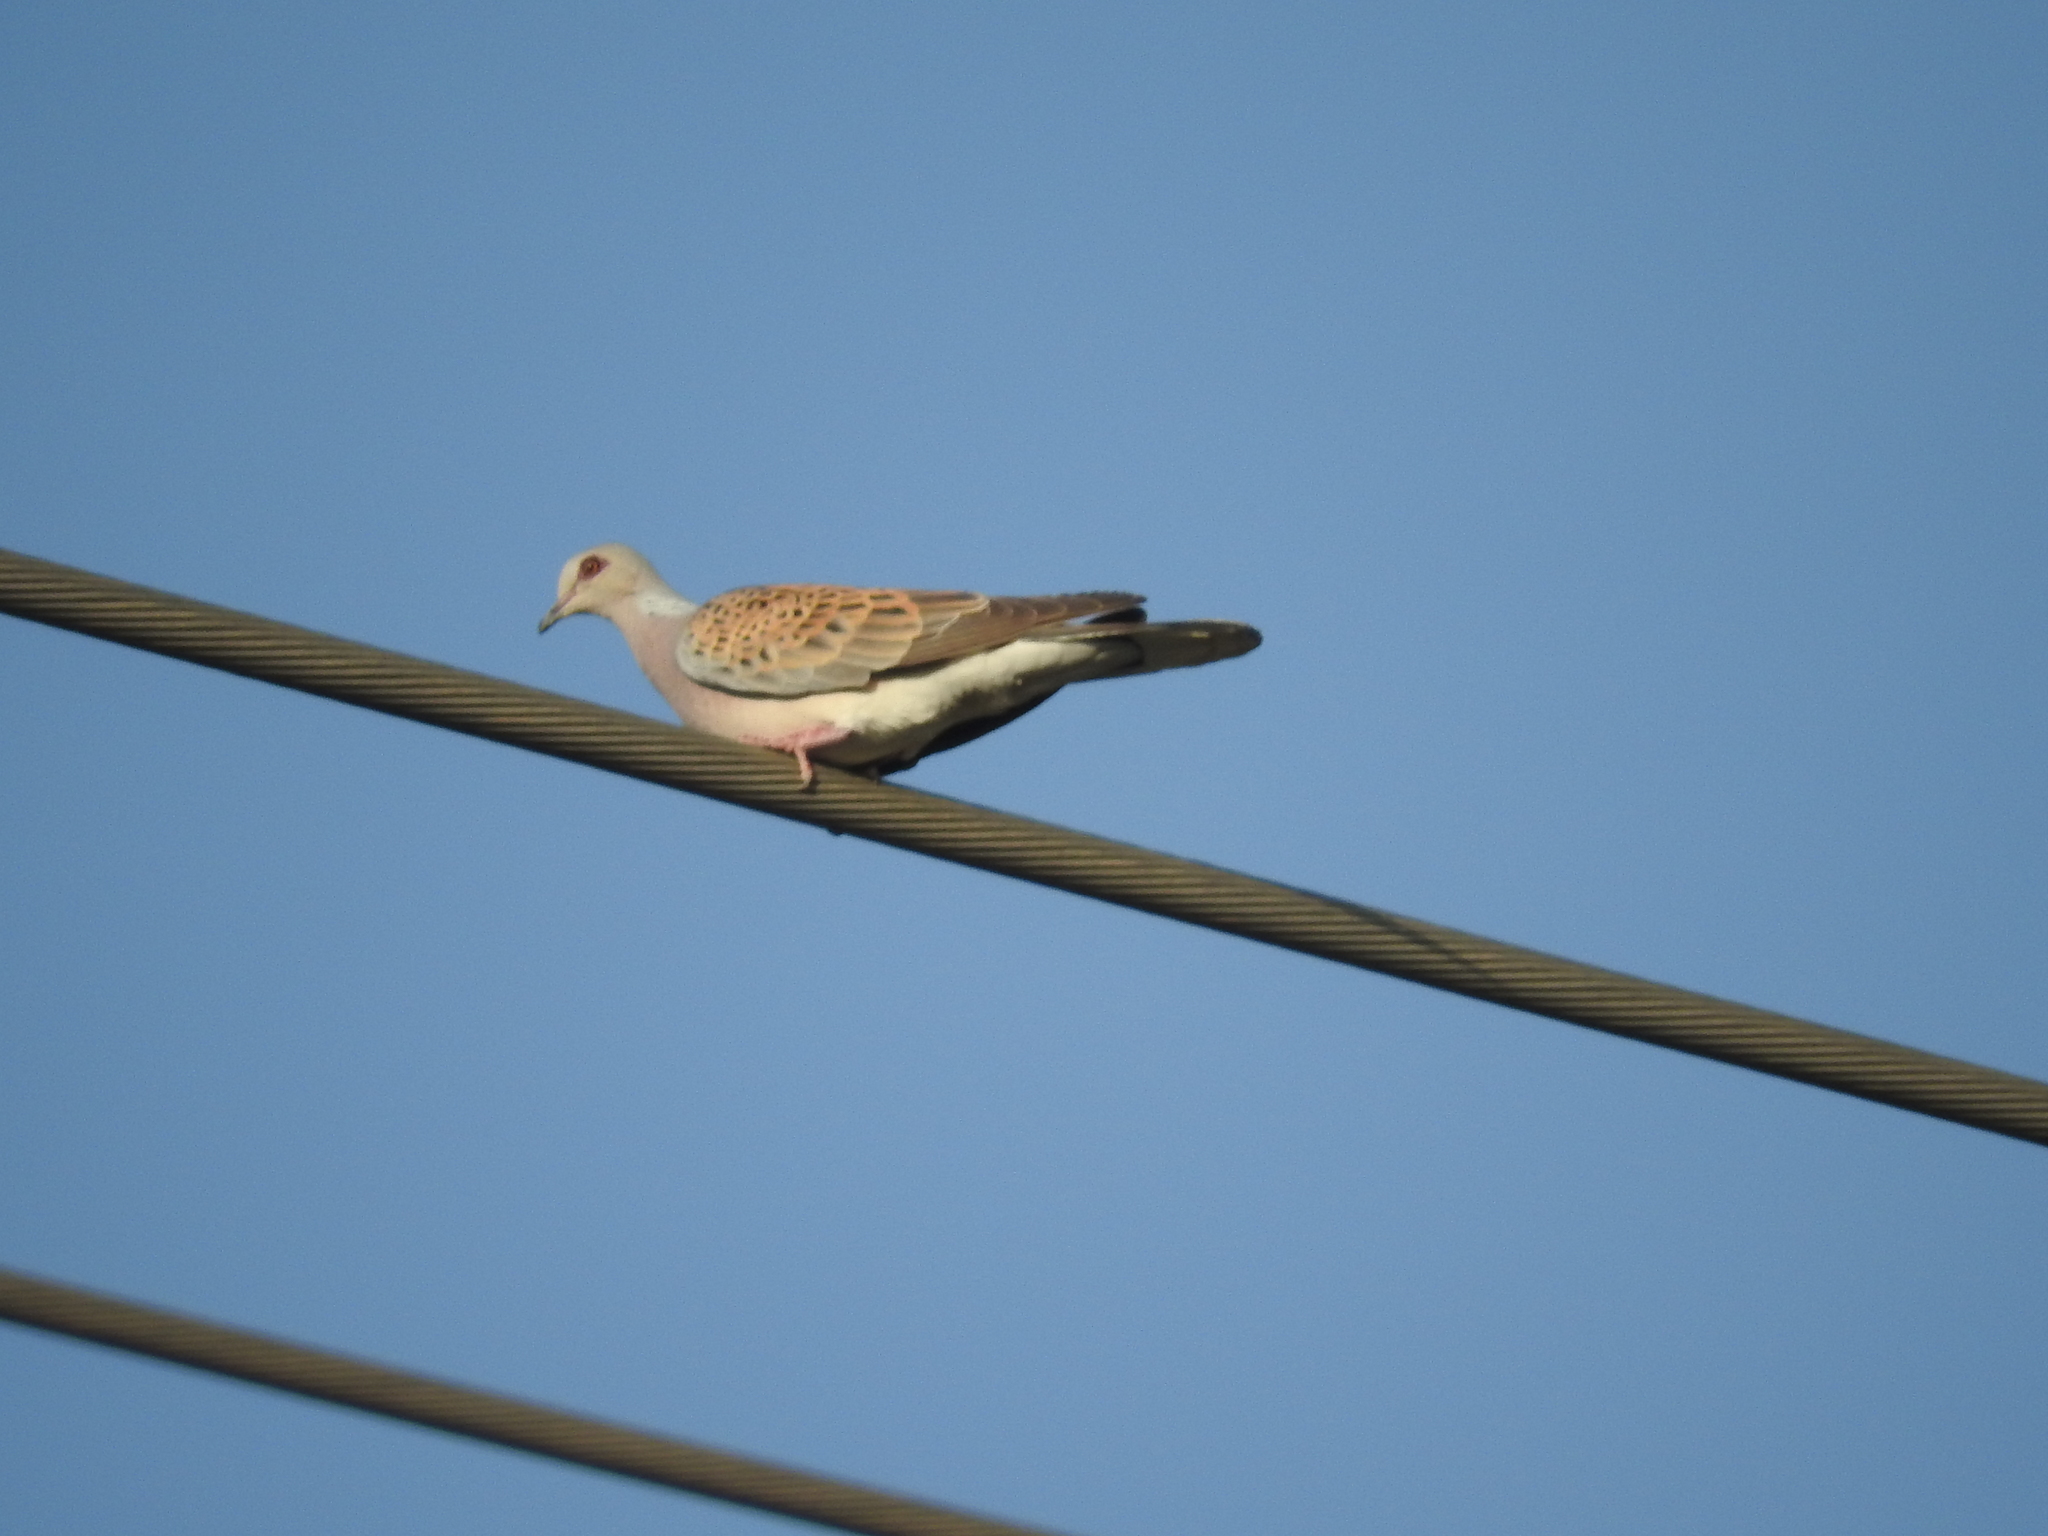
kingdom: Animalia
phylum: Chordata
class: Aves
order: Columbiformes
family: Columbidae
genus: Streptopelia
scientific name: Streptopelia turtur
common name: European turtle dove
